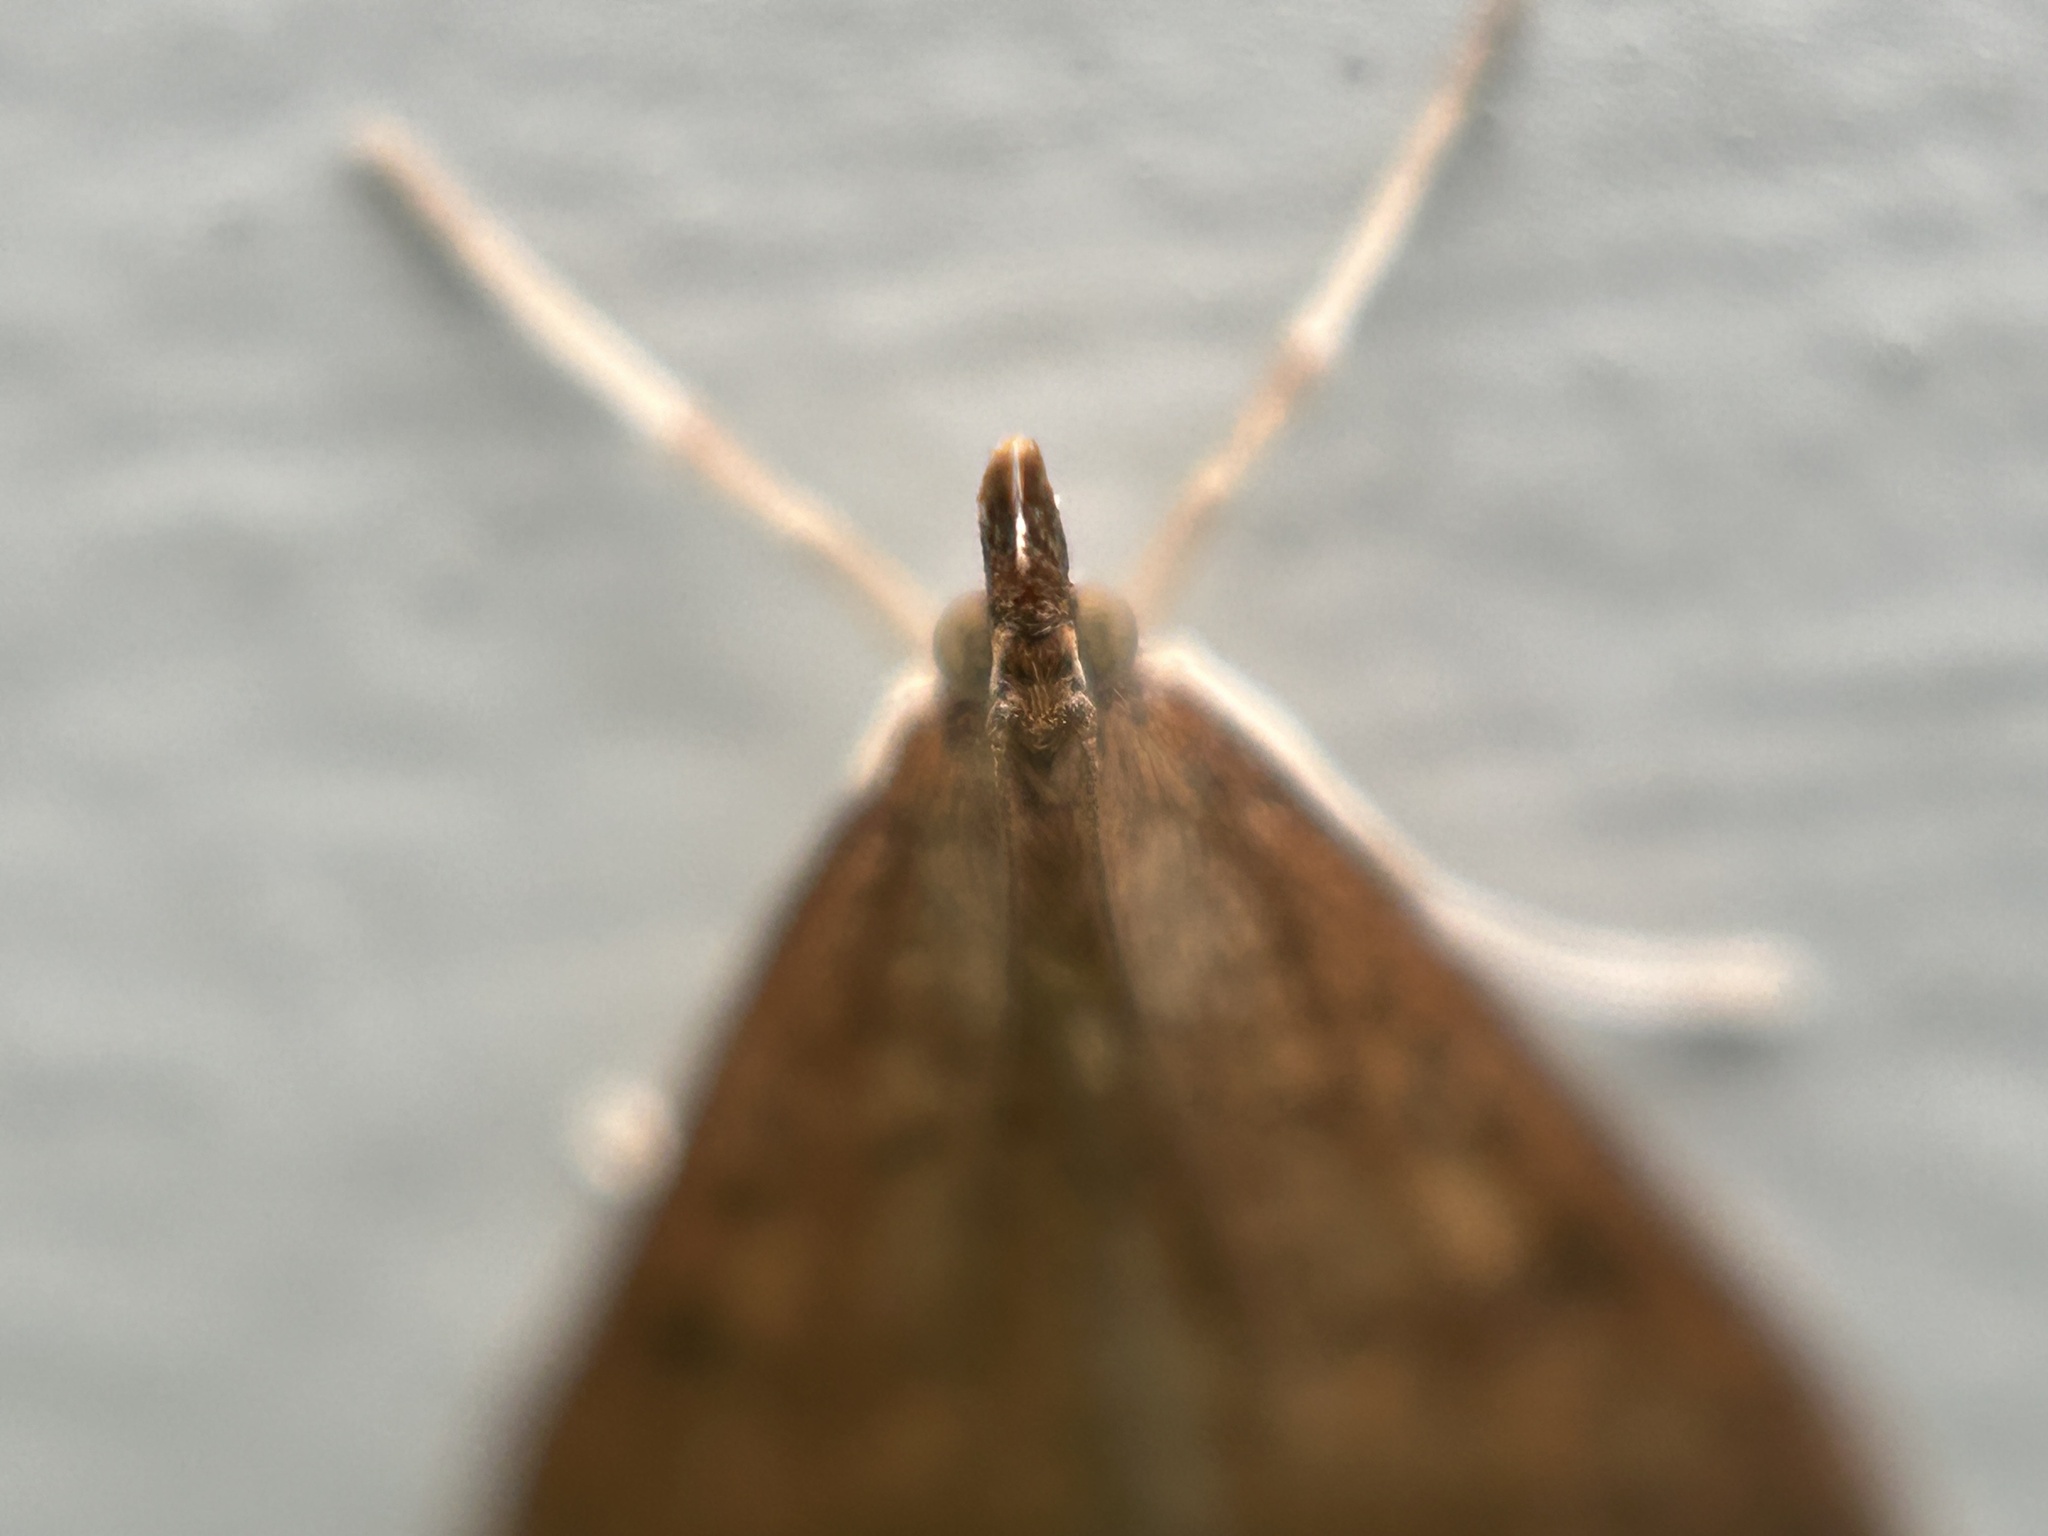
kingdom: Animalia
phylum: Arthropoda
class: Insecta
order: Lepidoptera
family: Crambidae
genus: Udea
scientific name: Udea rubigalis
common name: Celery leaftier moth
